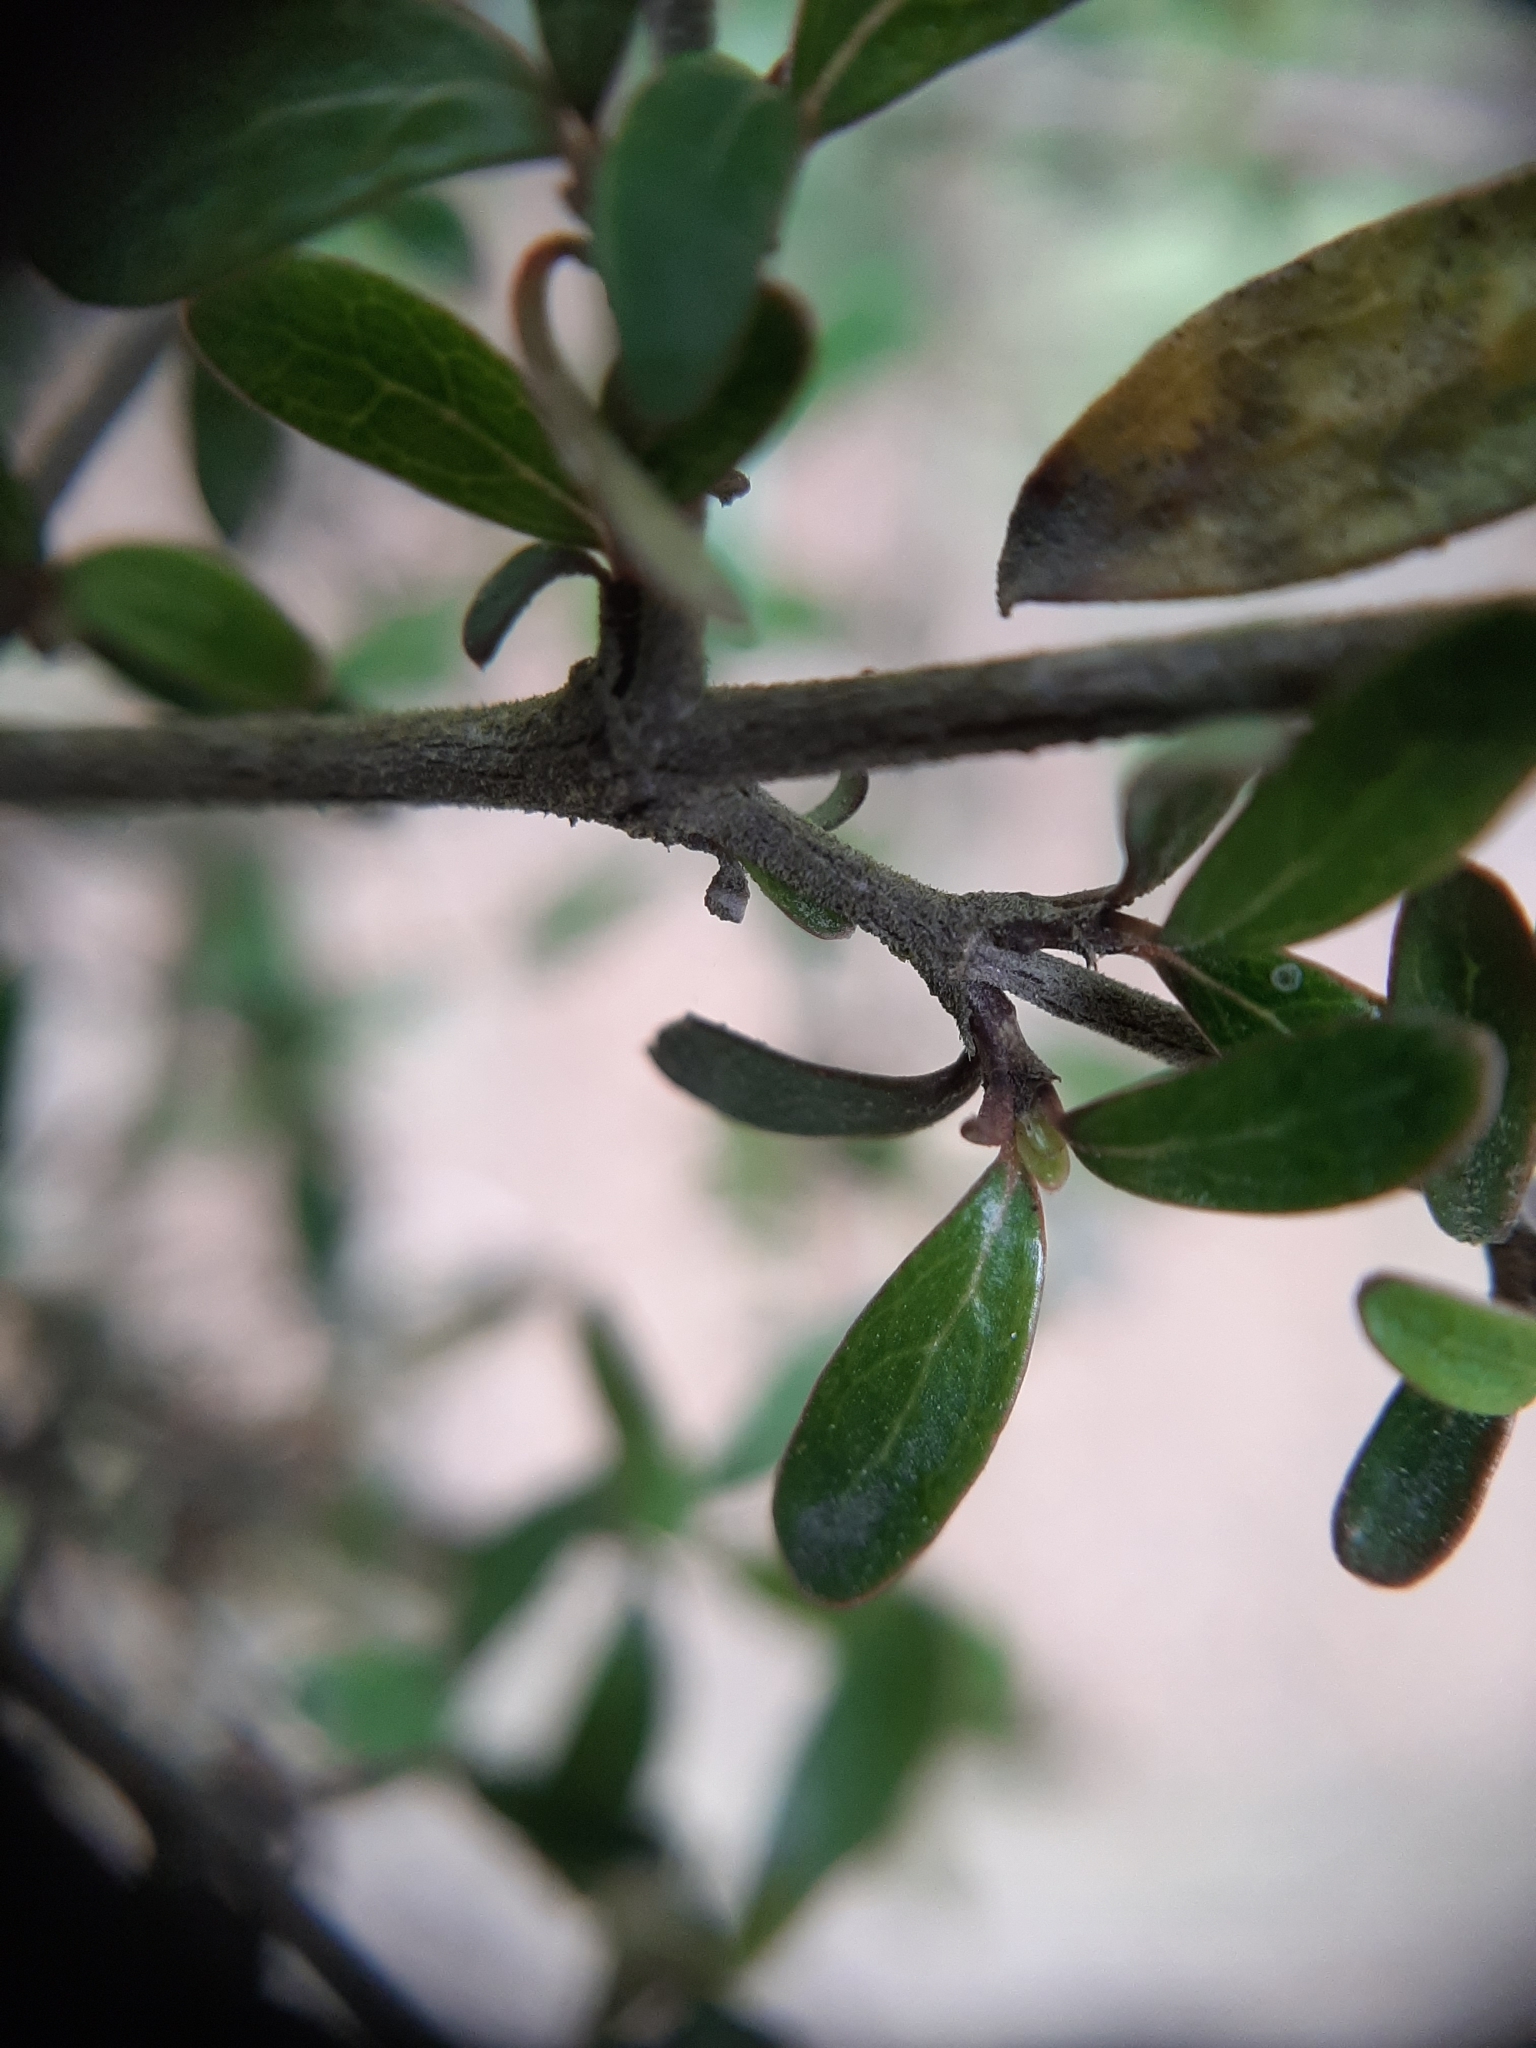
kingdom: Plantae
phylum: Tracheophyta
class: Magnoliopsida
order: Gentianales
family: Rubiaceae
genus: Coprosma
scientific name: Coprosma dumosa
